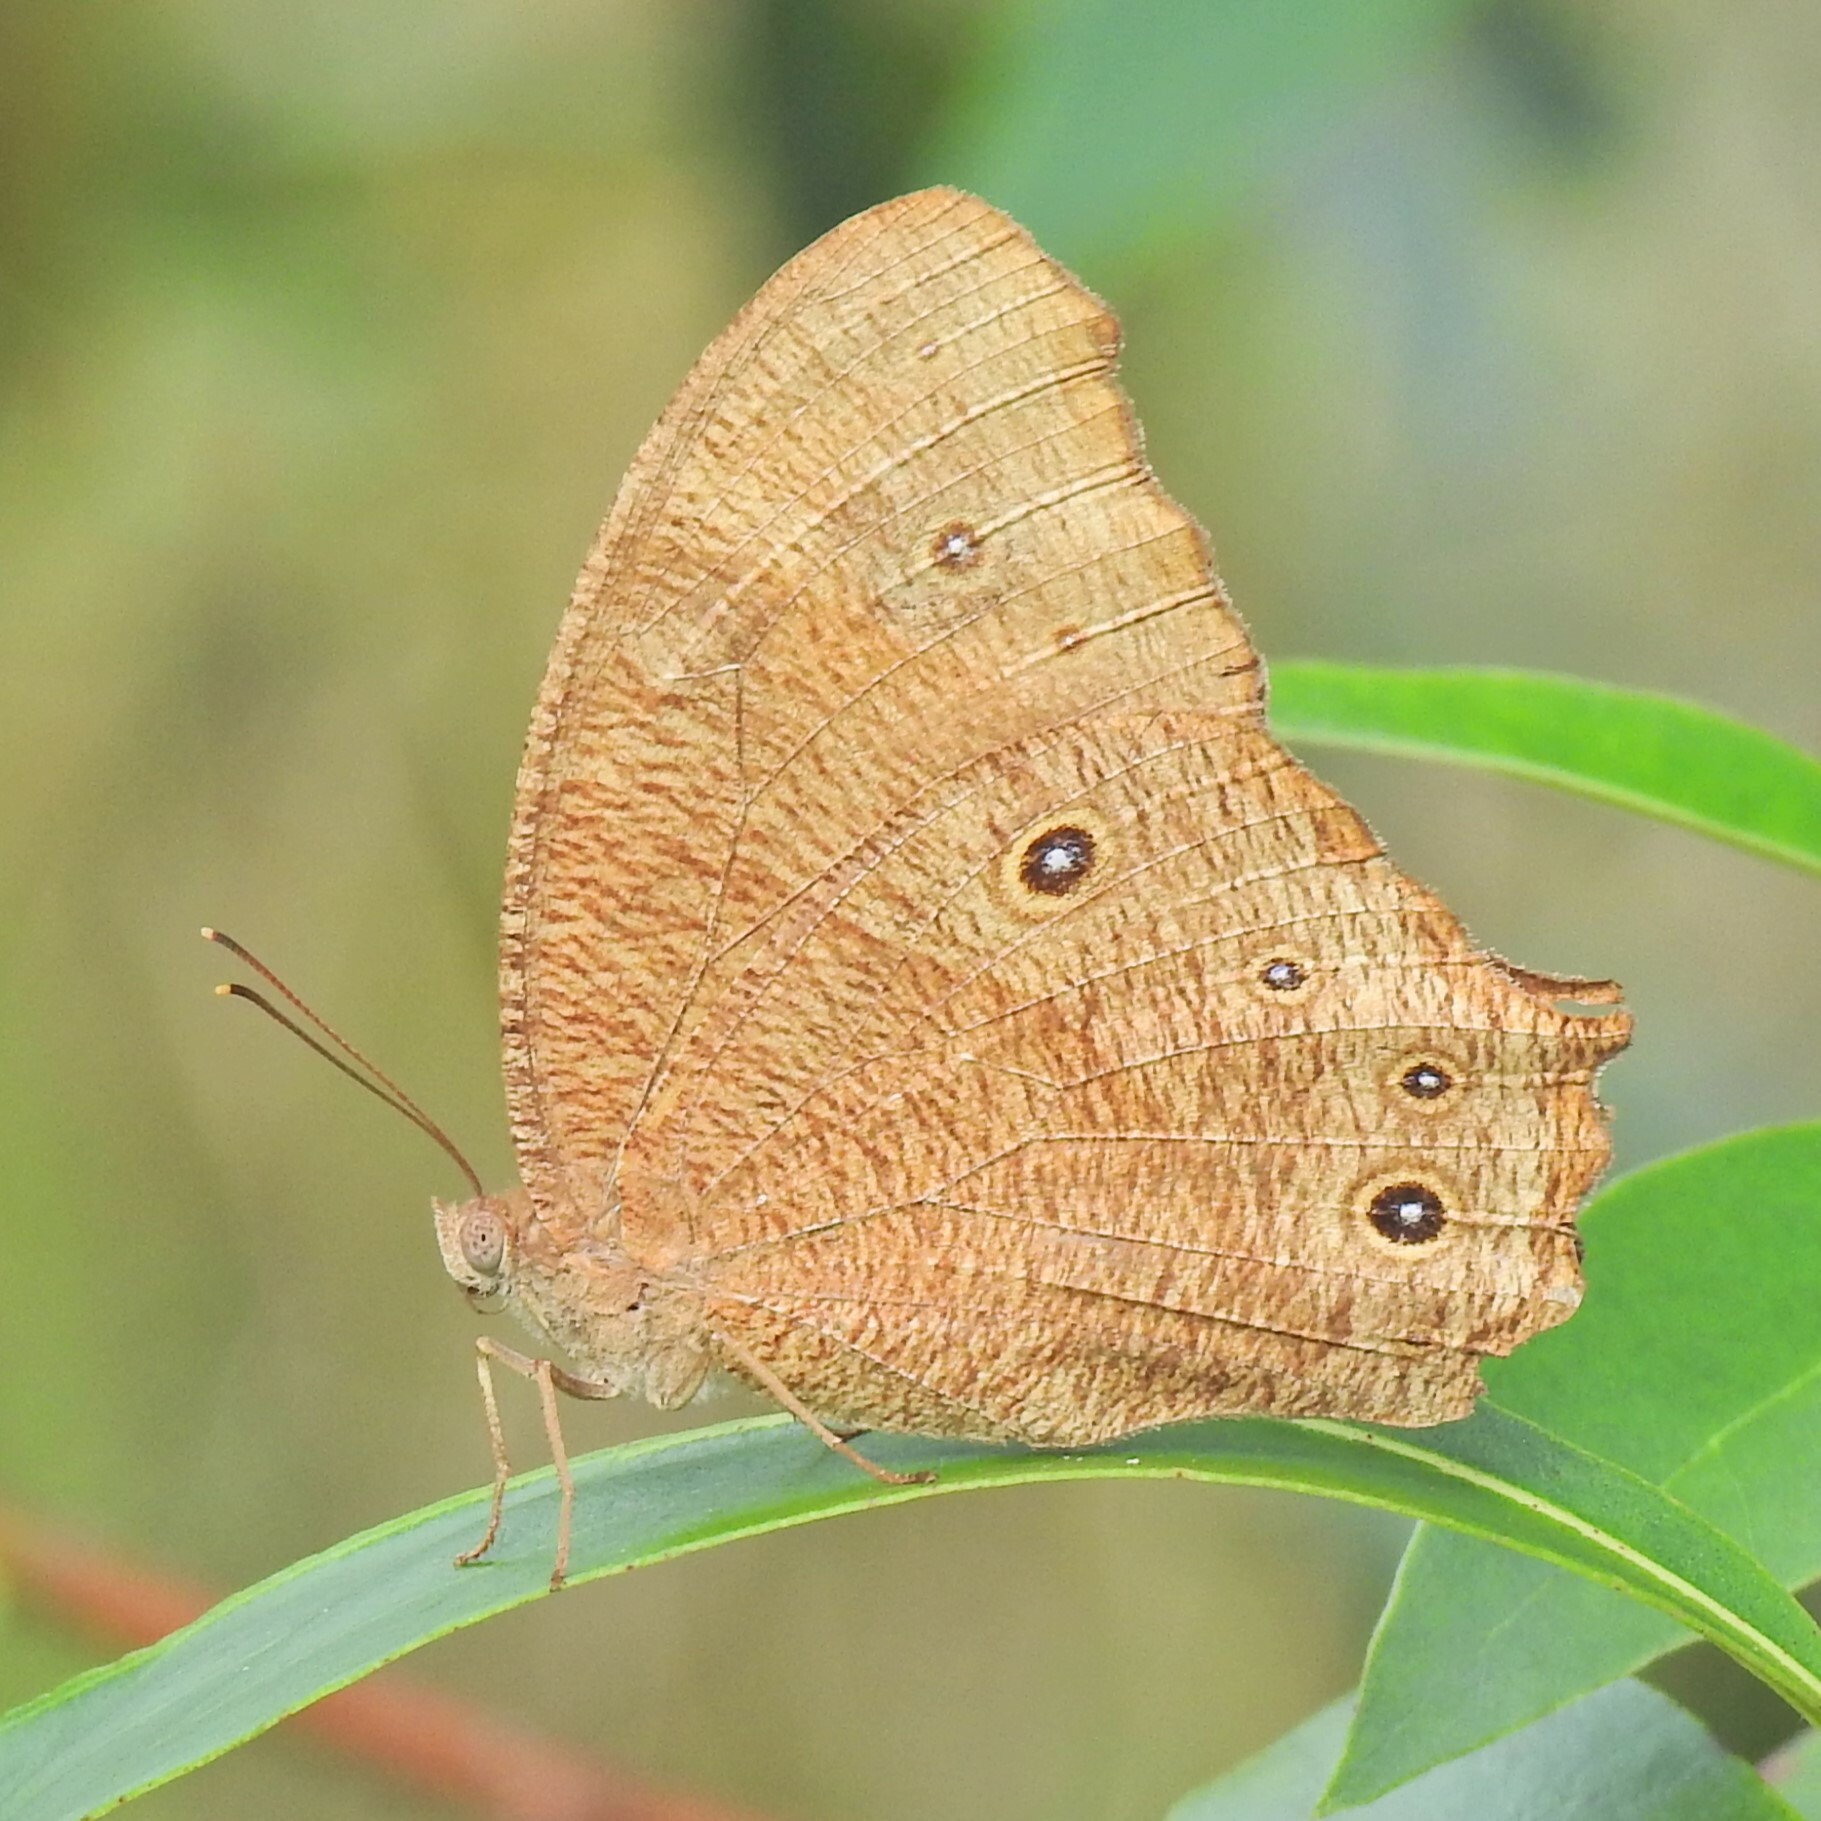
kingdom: Animalia
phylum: Arthropoda
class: Insecta
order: Lepidoptera
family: Nymphalidae
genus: Melanitis
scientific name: Melanitis leda
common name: Twilight brown
